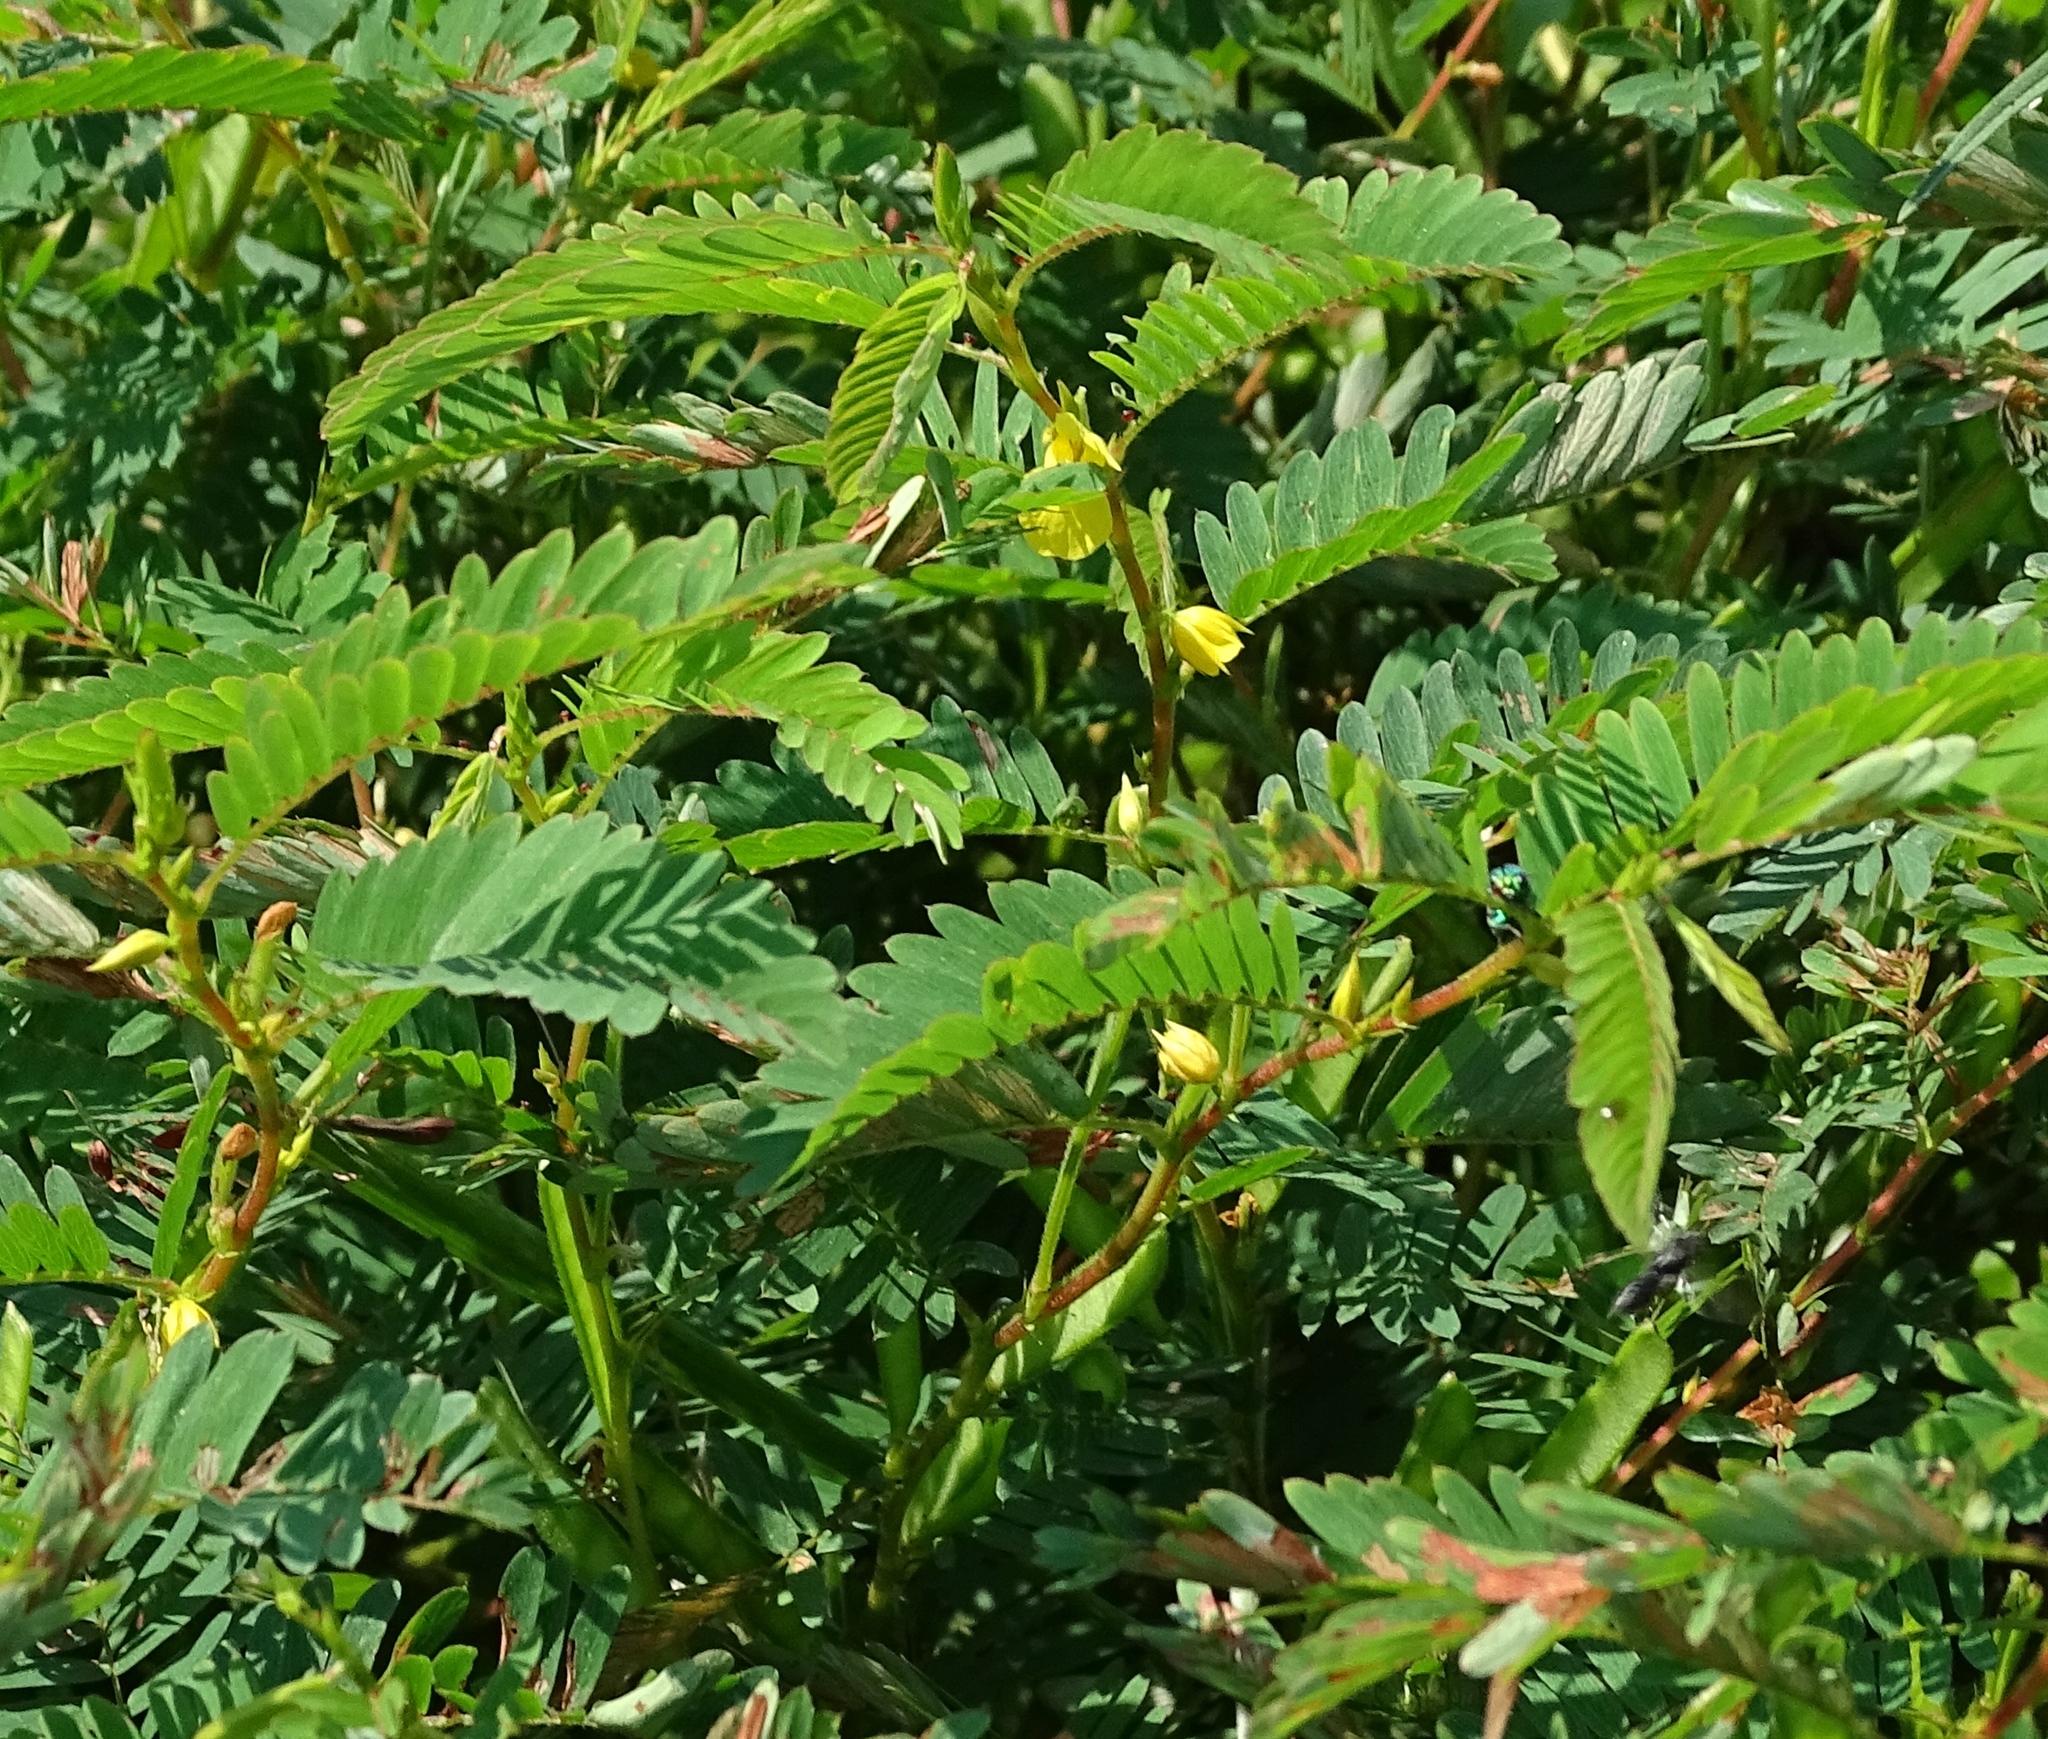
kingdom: Plantae
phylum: Tracheophyta
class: Magnoliopsida
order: Fabales
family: Fabaceae
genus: Chamaecrista
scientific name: Chamaecrista fasciculata
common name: Golden cassia
